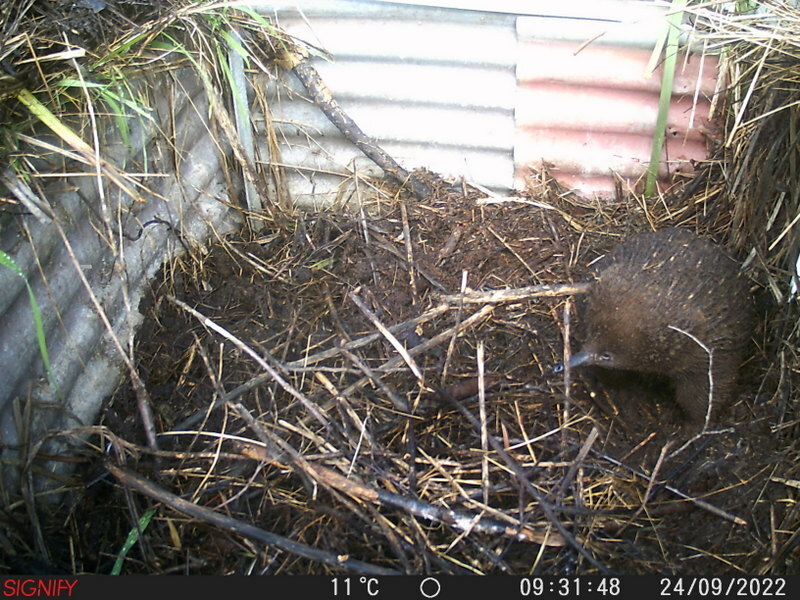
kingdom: Animalia
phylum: Chordata
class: Mammalia
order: Monotremata
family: Tachyglossidae
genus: Tachyglossus
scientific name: Tachyglossus aculeatus
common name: Short-beaked echidna
